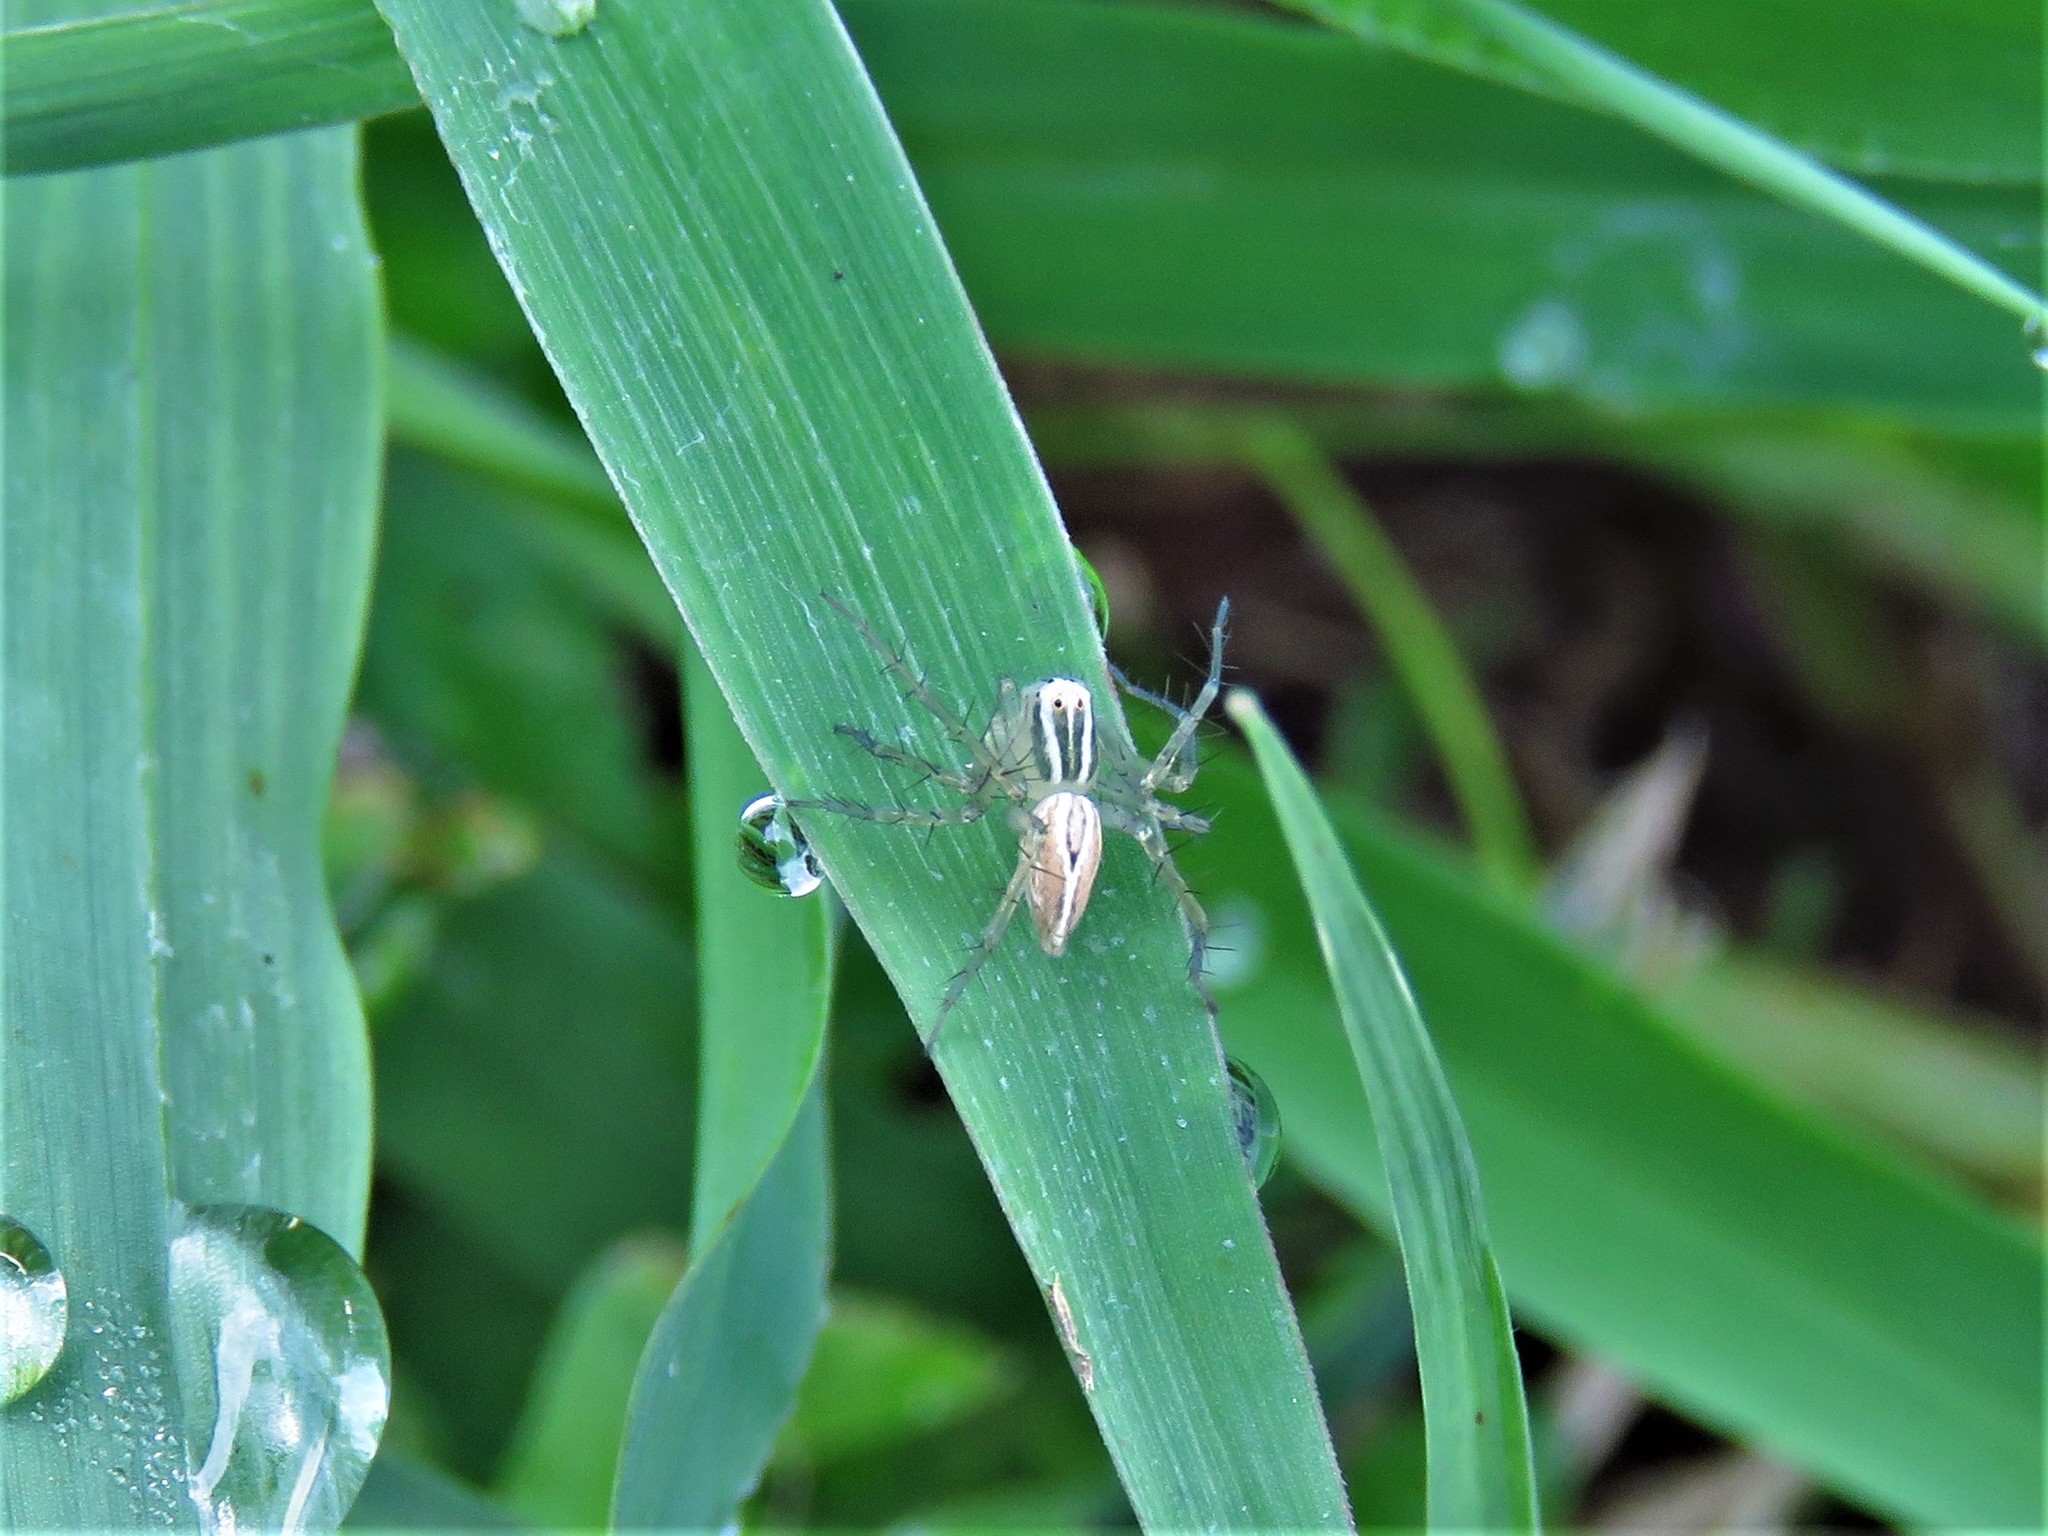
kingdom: Animalia
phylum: Arthropoda
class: Arachnida
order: Araneae
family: Oxyopidae
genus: Oxyopes
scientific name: Oxyopes salticus
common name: Lynx spiders
